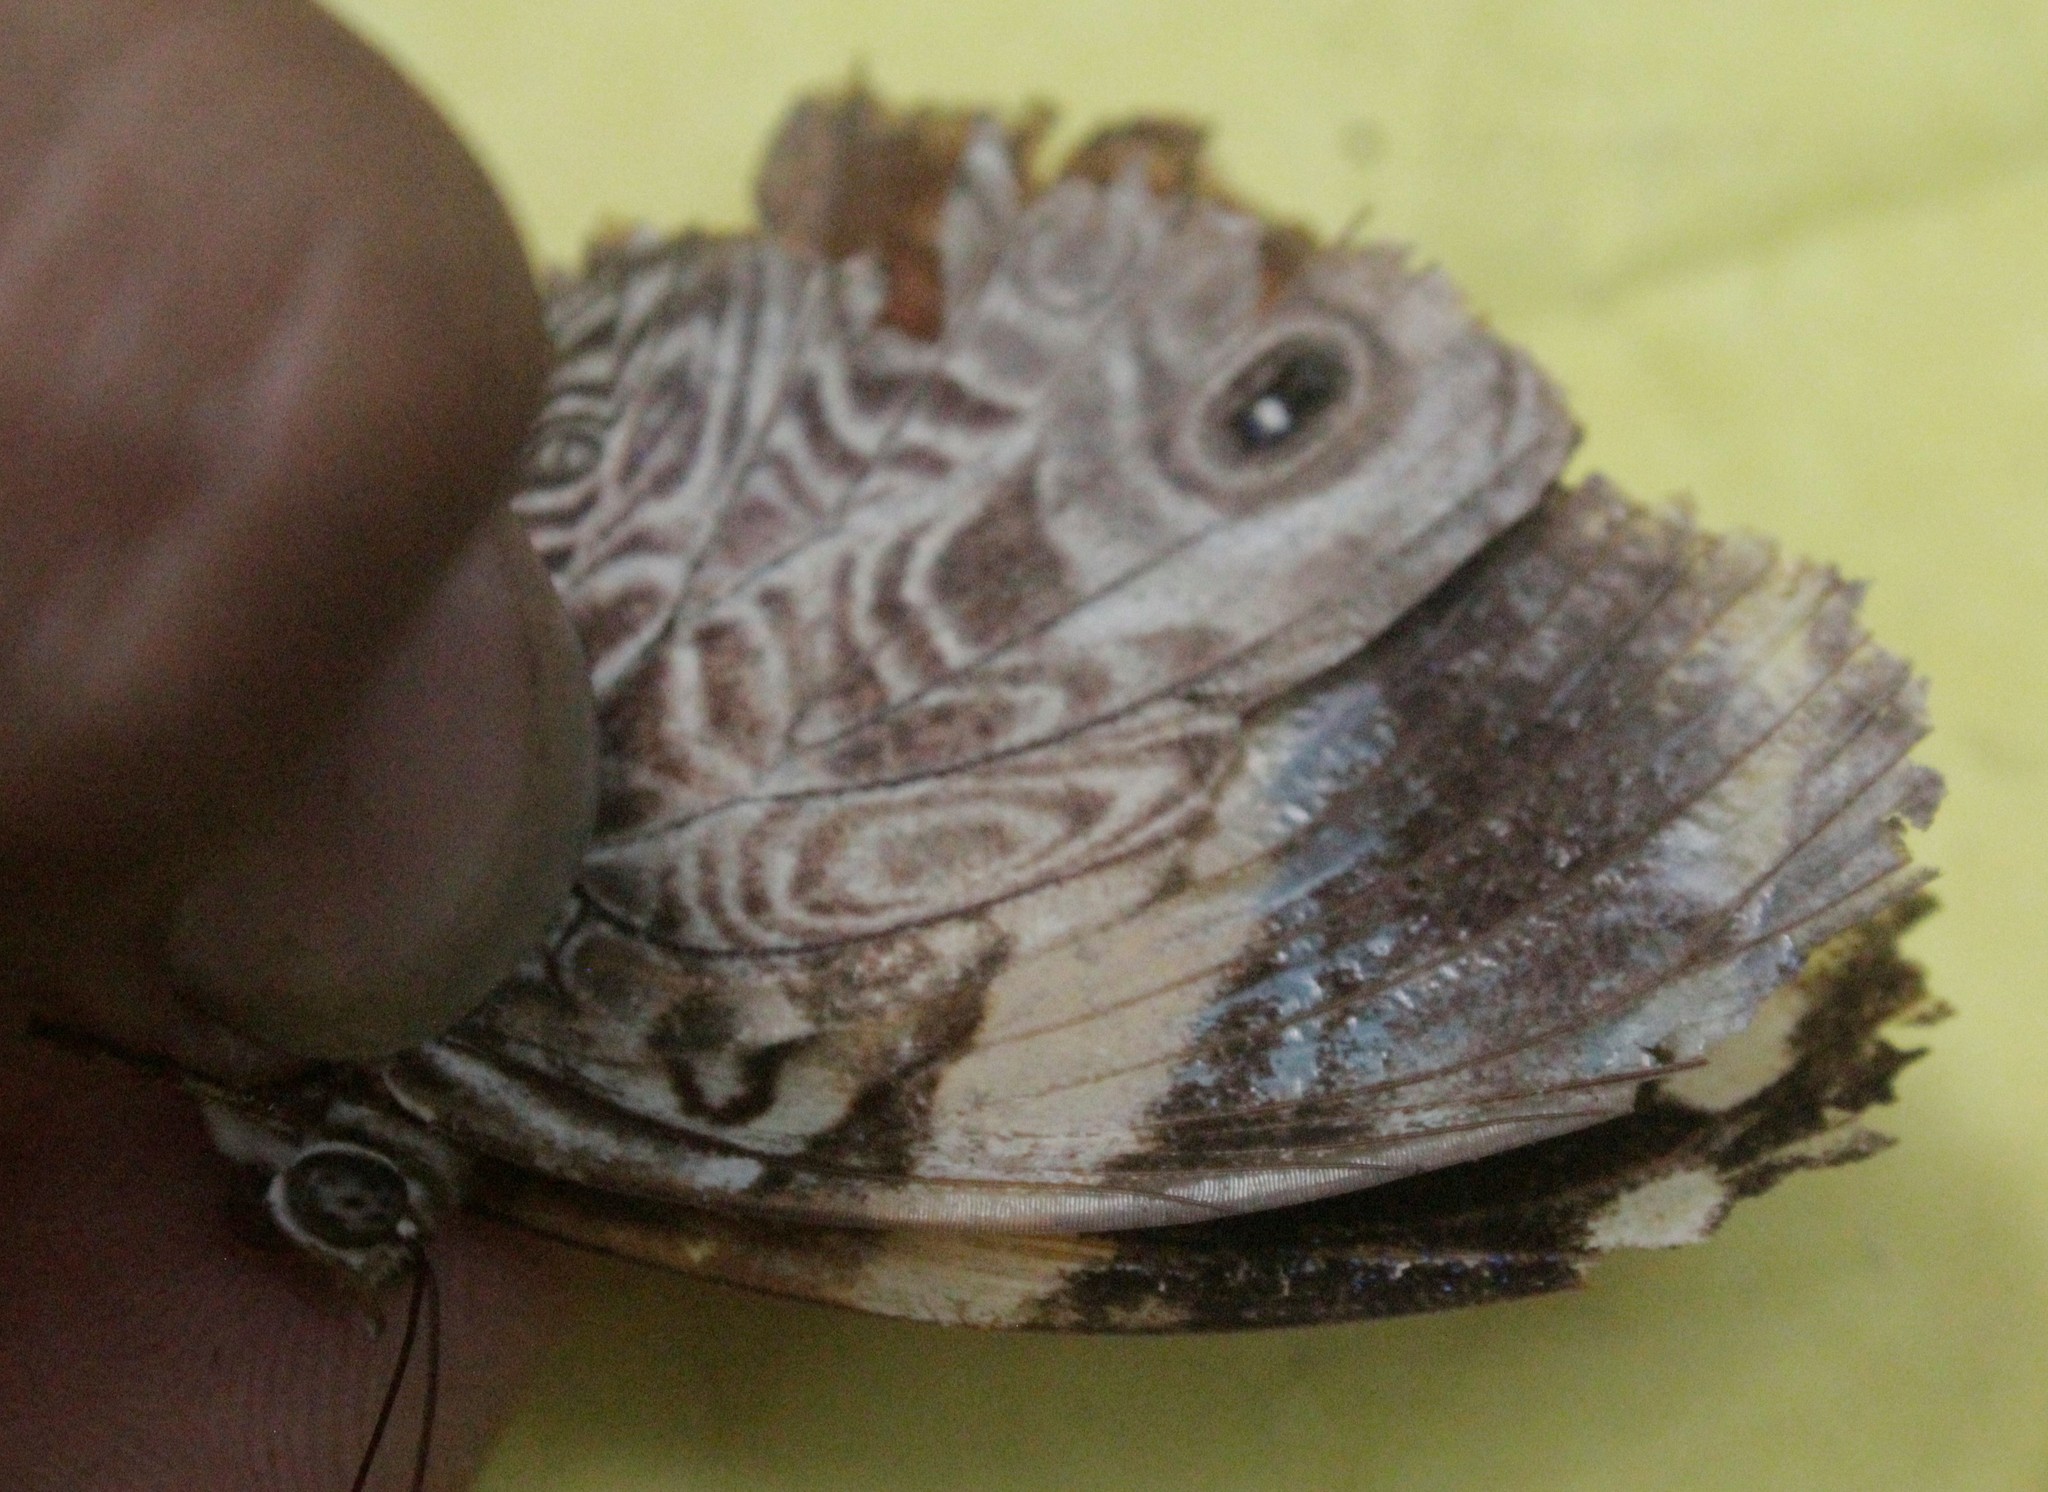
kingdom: Animalia
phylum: Arthropoda
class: Insecta
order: Lepidoptera
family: Nymphalidae
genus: Smyrna
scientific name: Smyrna blomfildia
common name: Blomfild's beauty
